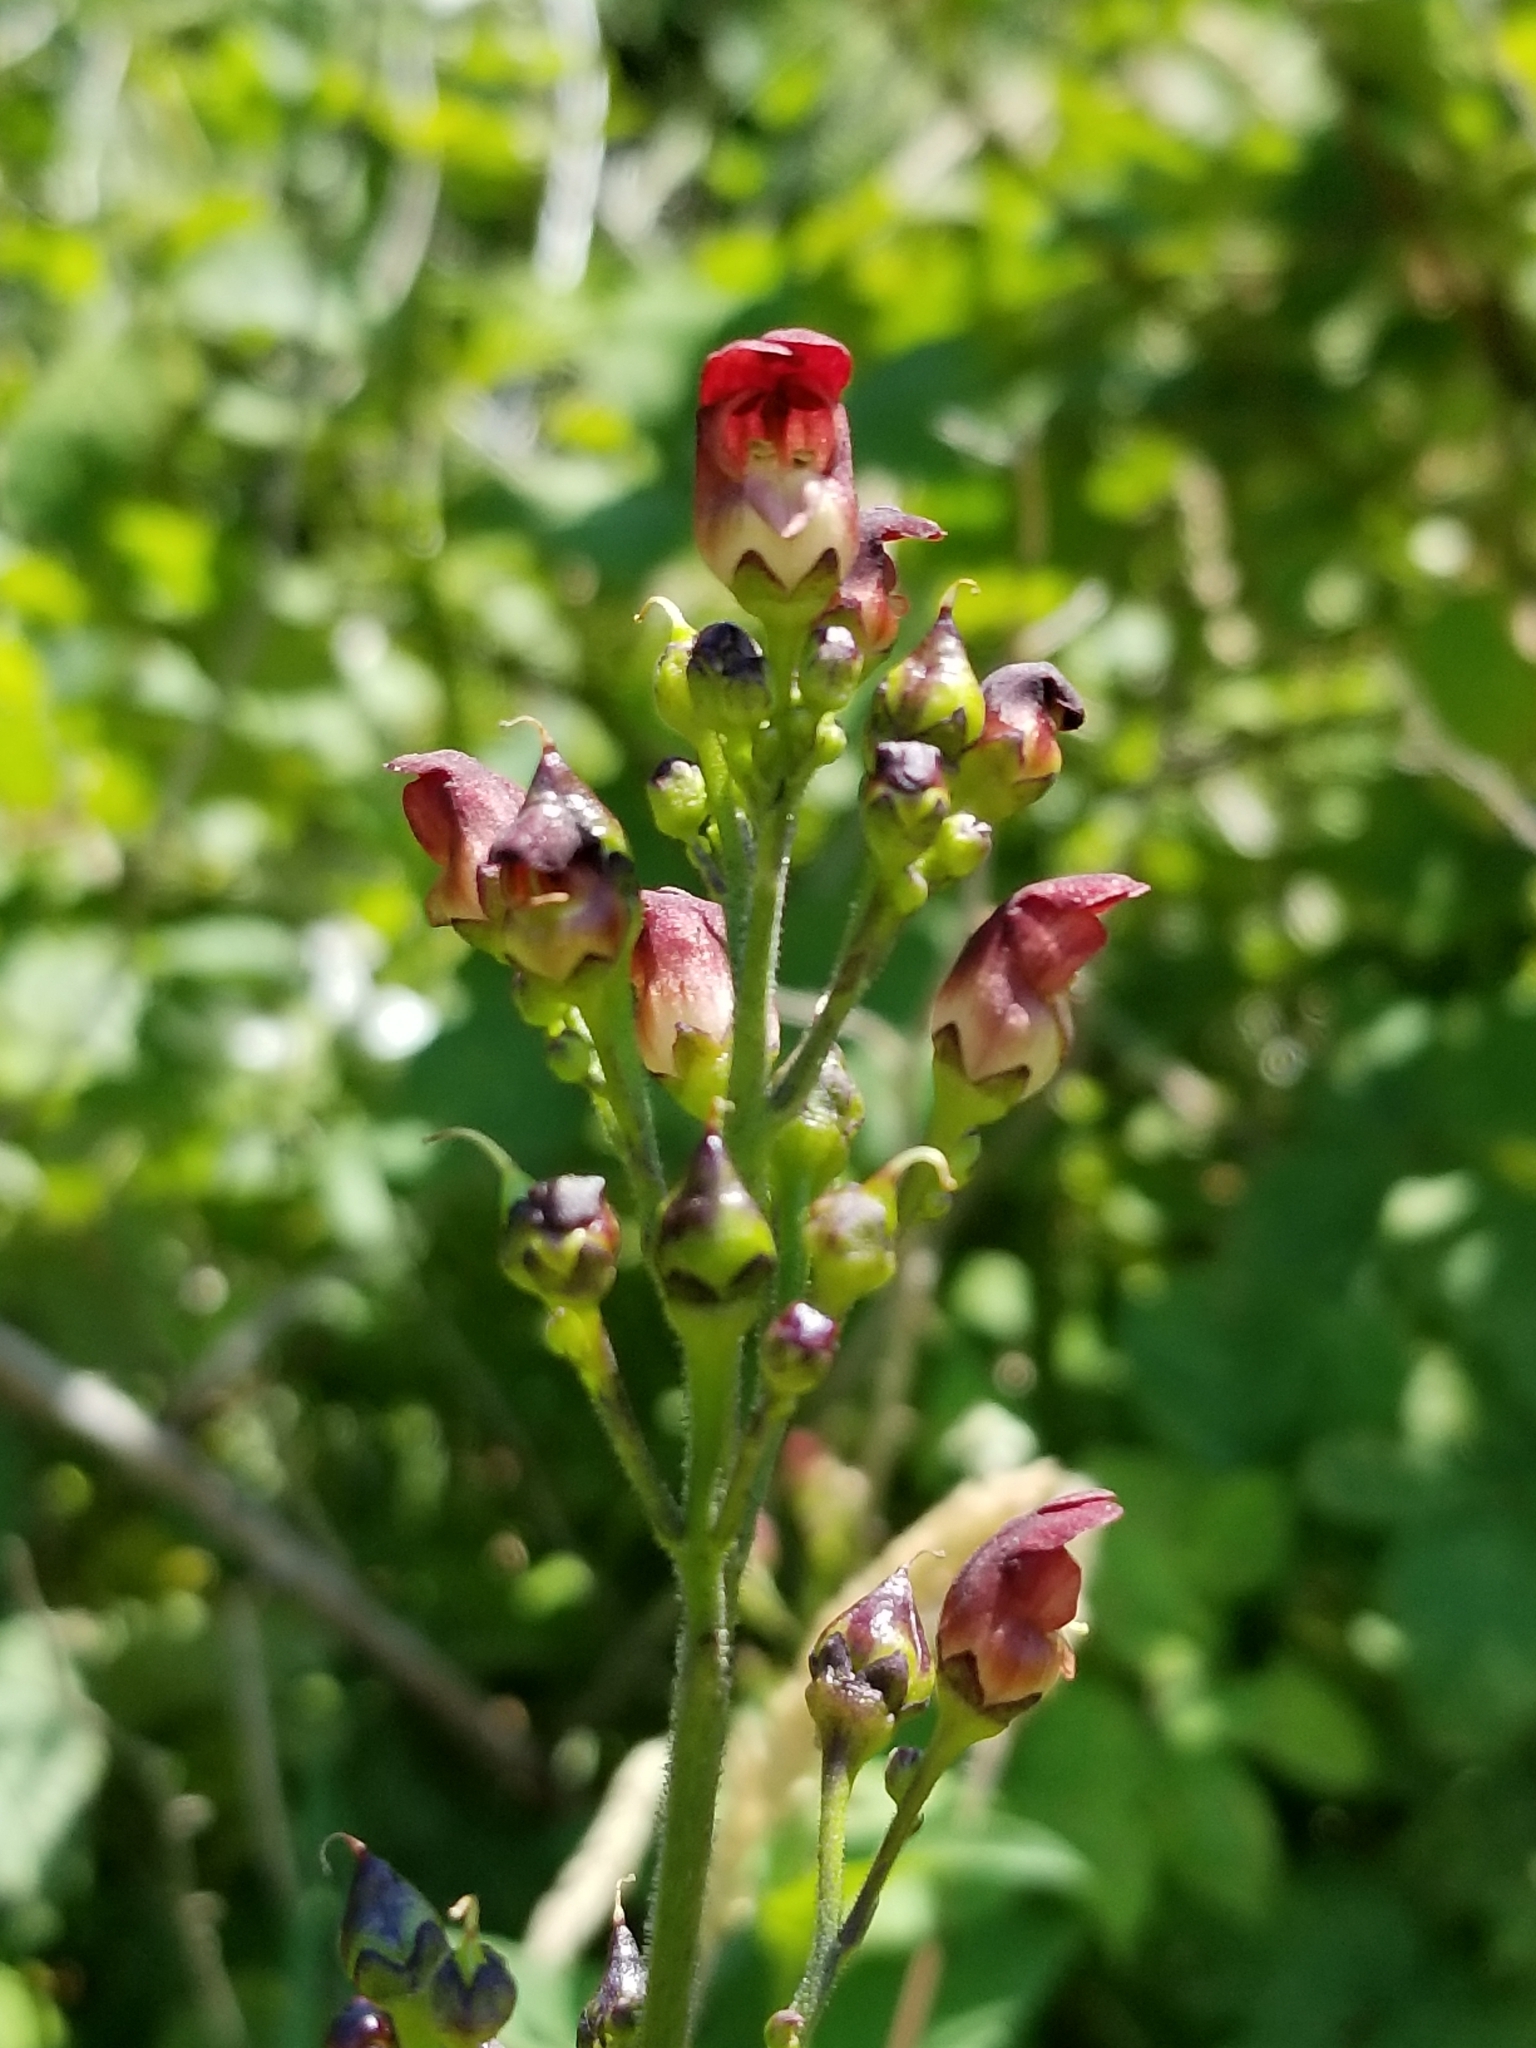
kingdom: Plantae
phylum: Tracheophyta
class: Magnoliopsida
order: Lamiales
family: Scrophulariaceae
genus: Scrophularia
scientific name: Scrophularia californica
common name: California figwort
